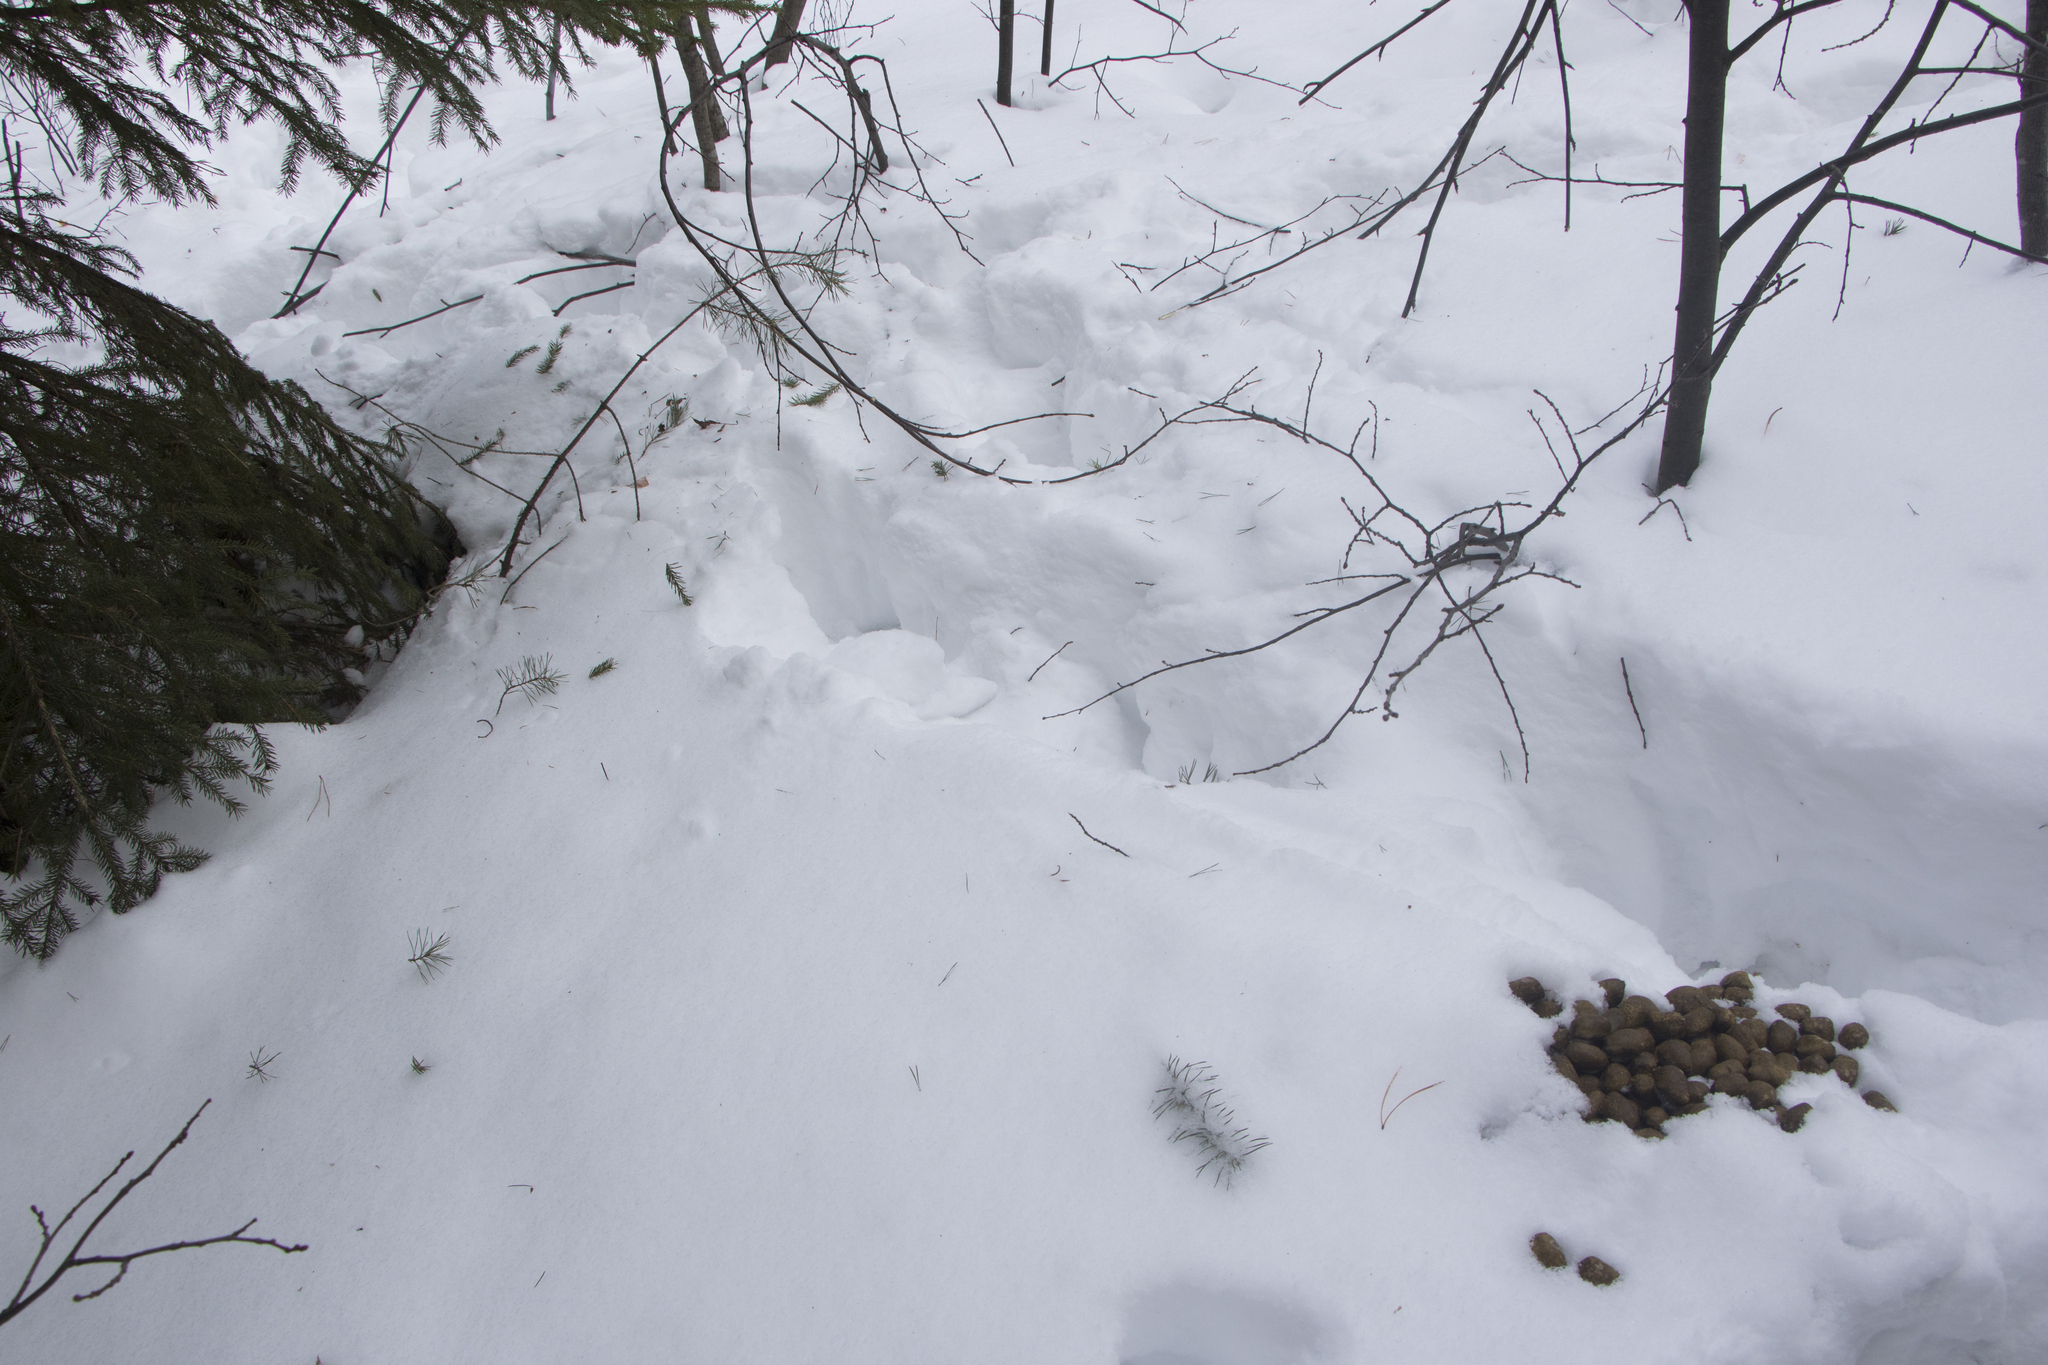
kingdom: Animalia
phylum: Chordata
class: Mammalia
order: Artiodactyla
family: Cervidae
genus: Alces
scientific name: Alces alces
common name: Moose
